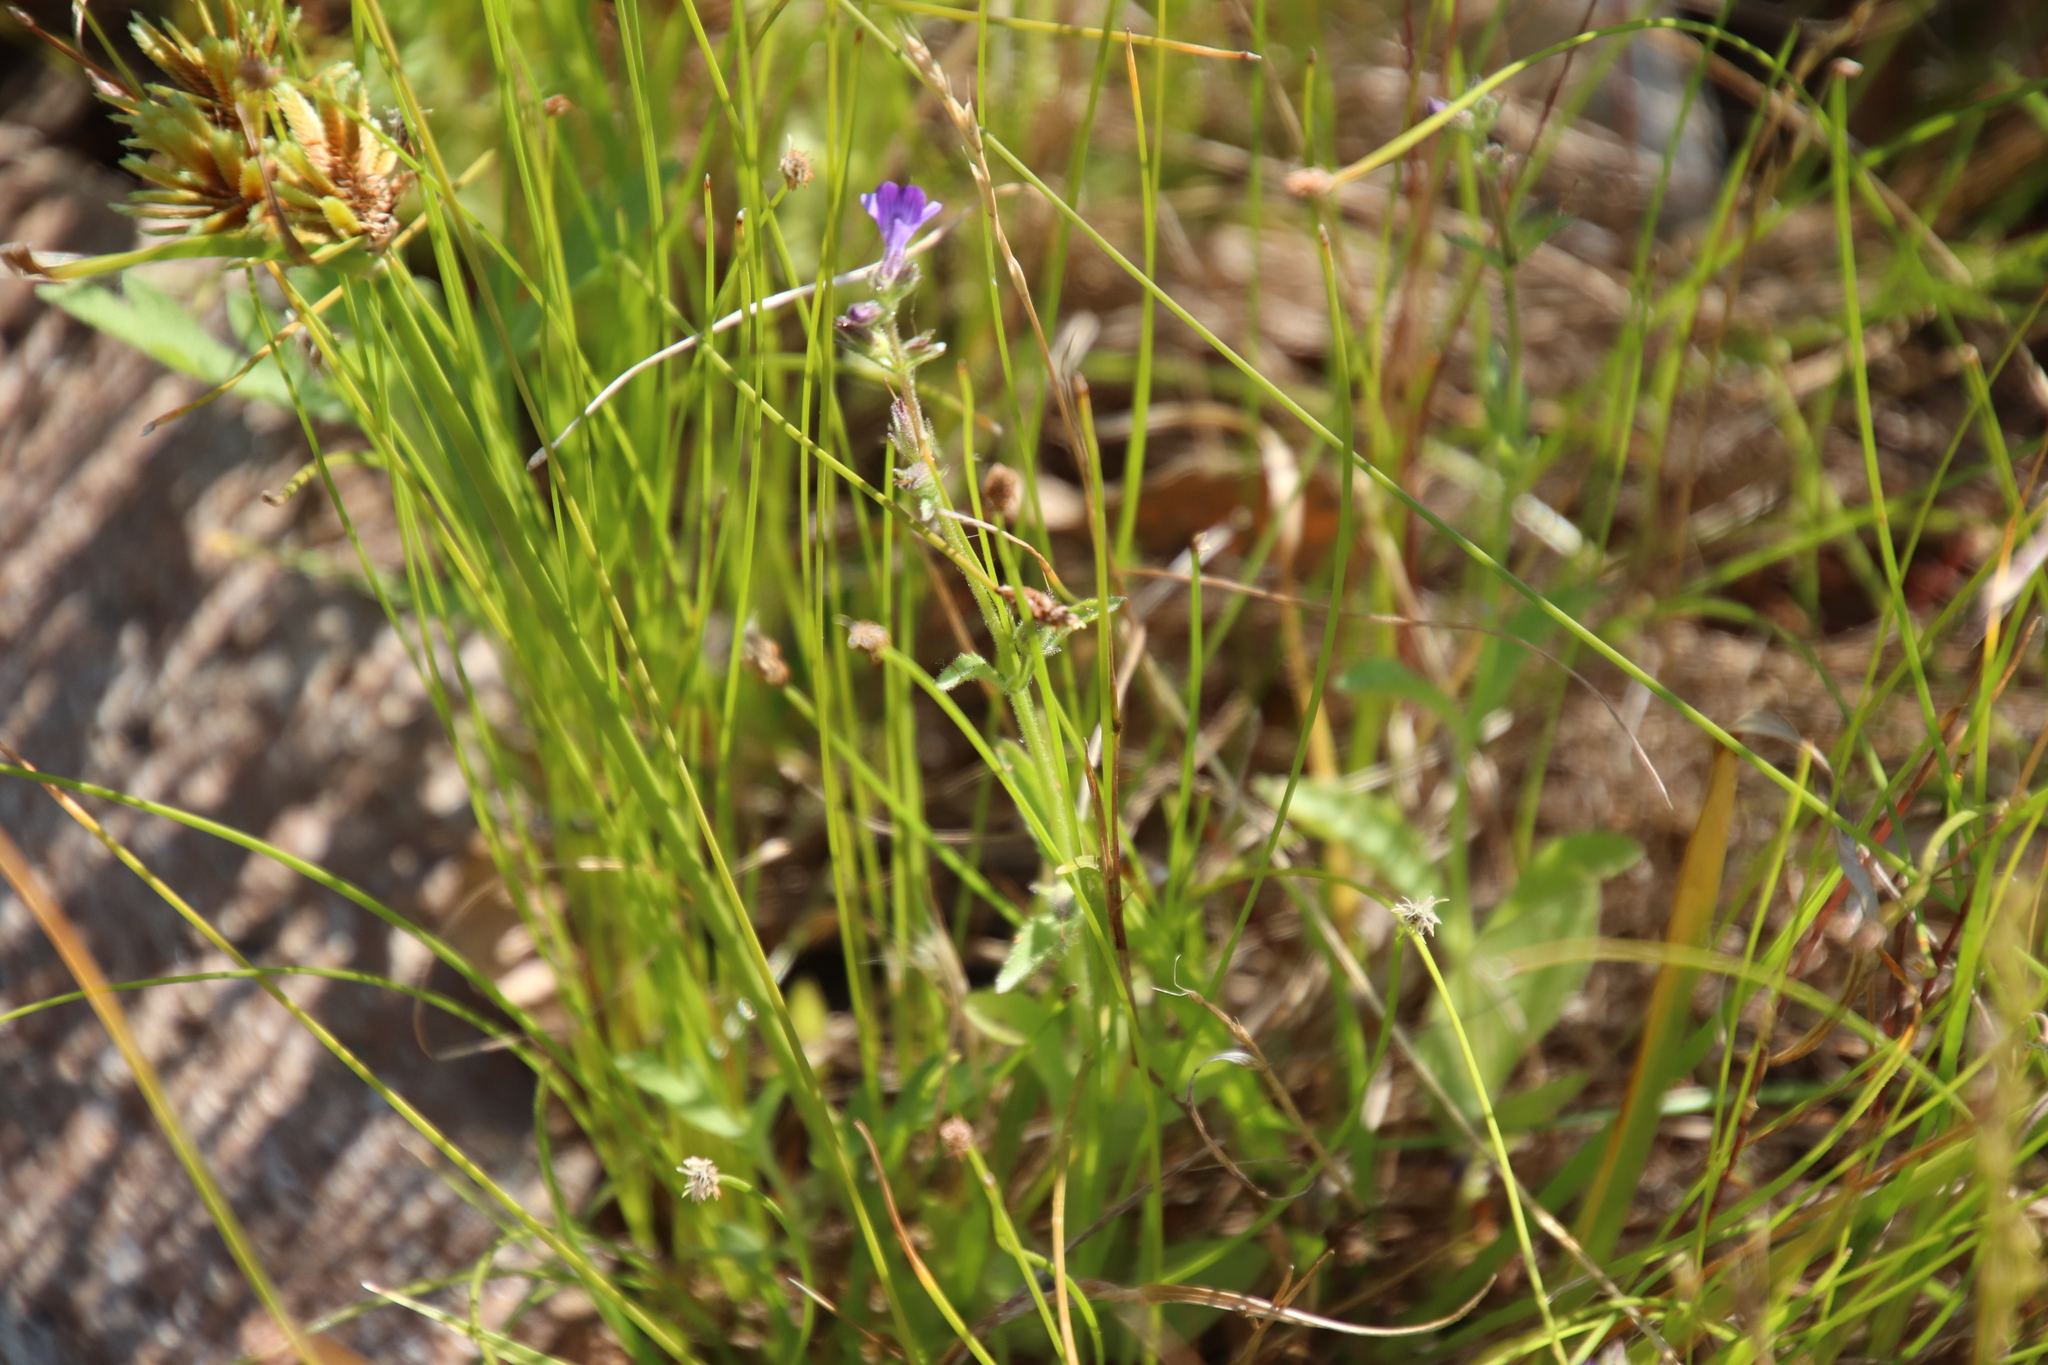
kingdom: Plantae
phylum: Tracheophyta
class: Magnoliopsida
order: Lamiales
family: Plantaginaceae
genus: Stemodia
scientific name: Stemodia durantifolia
